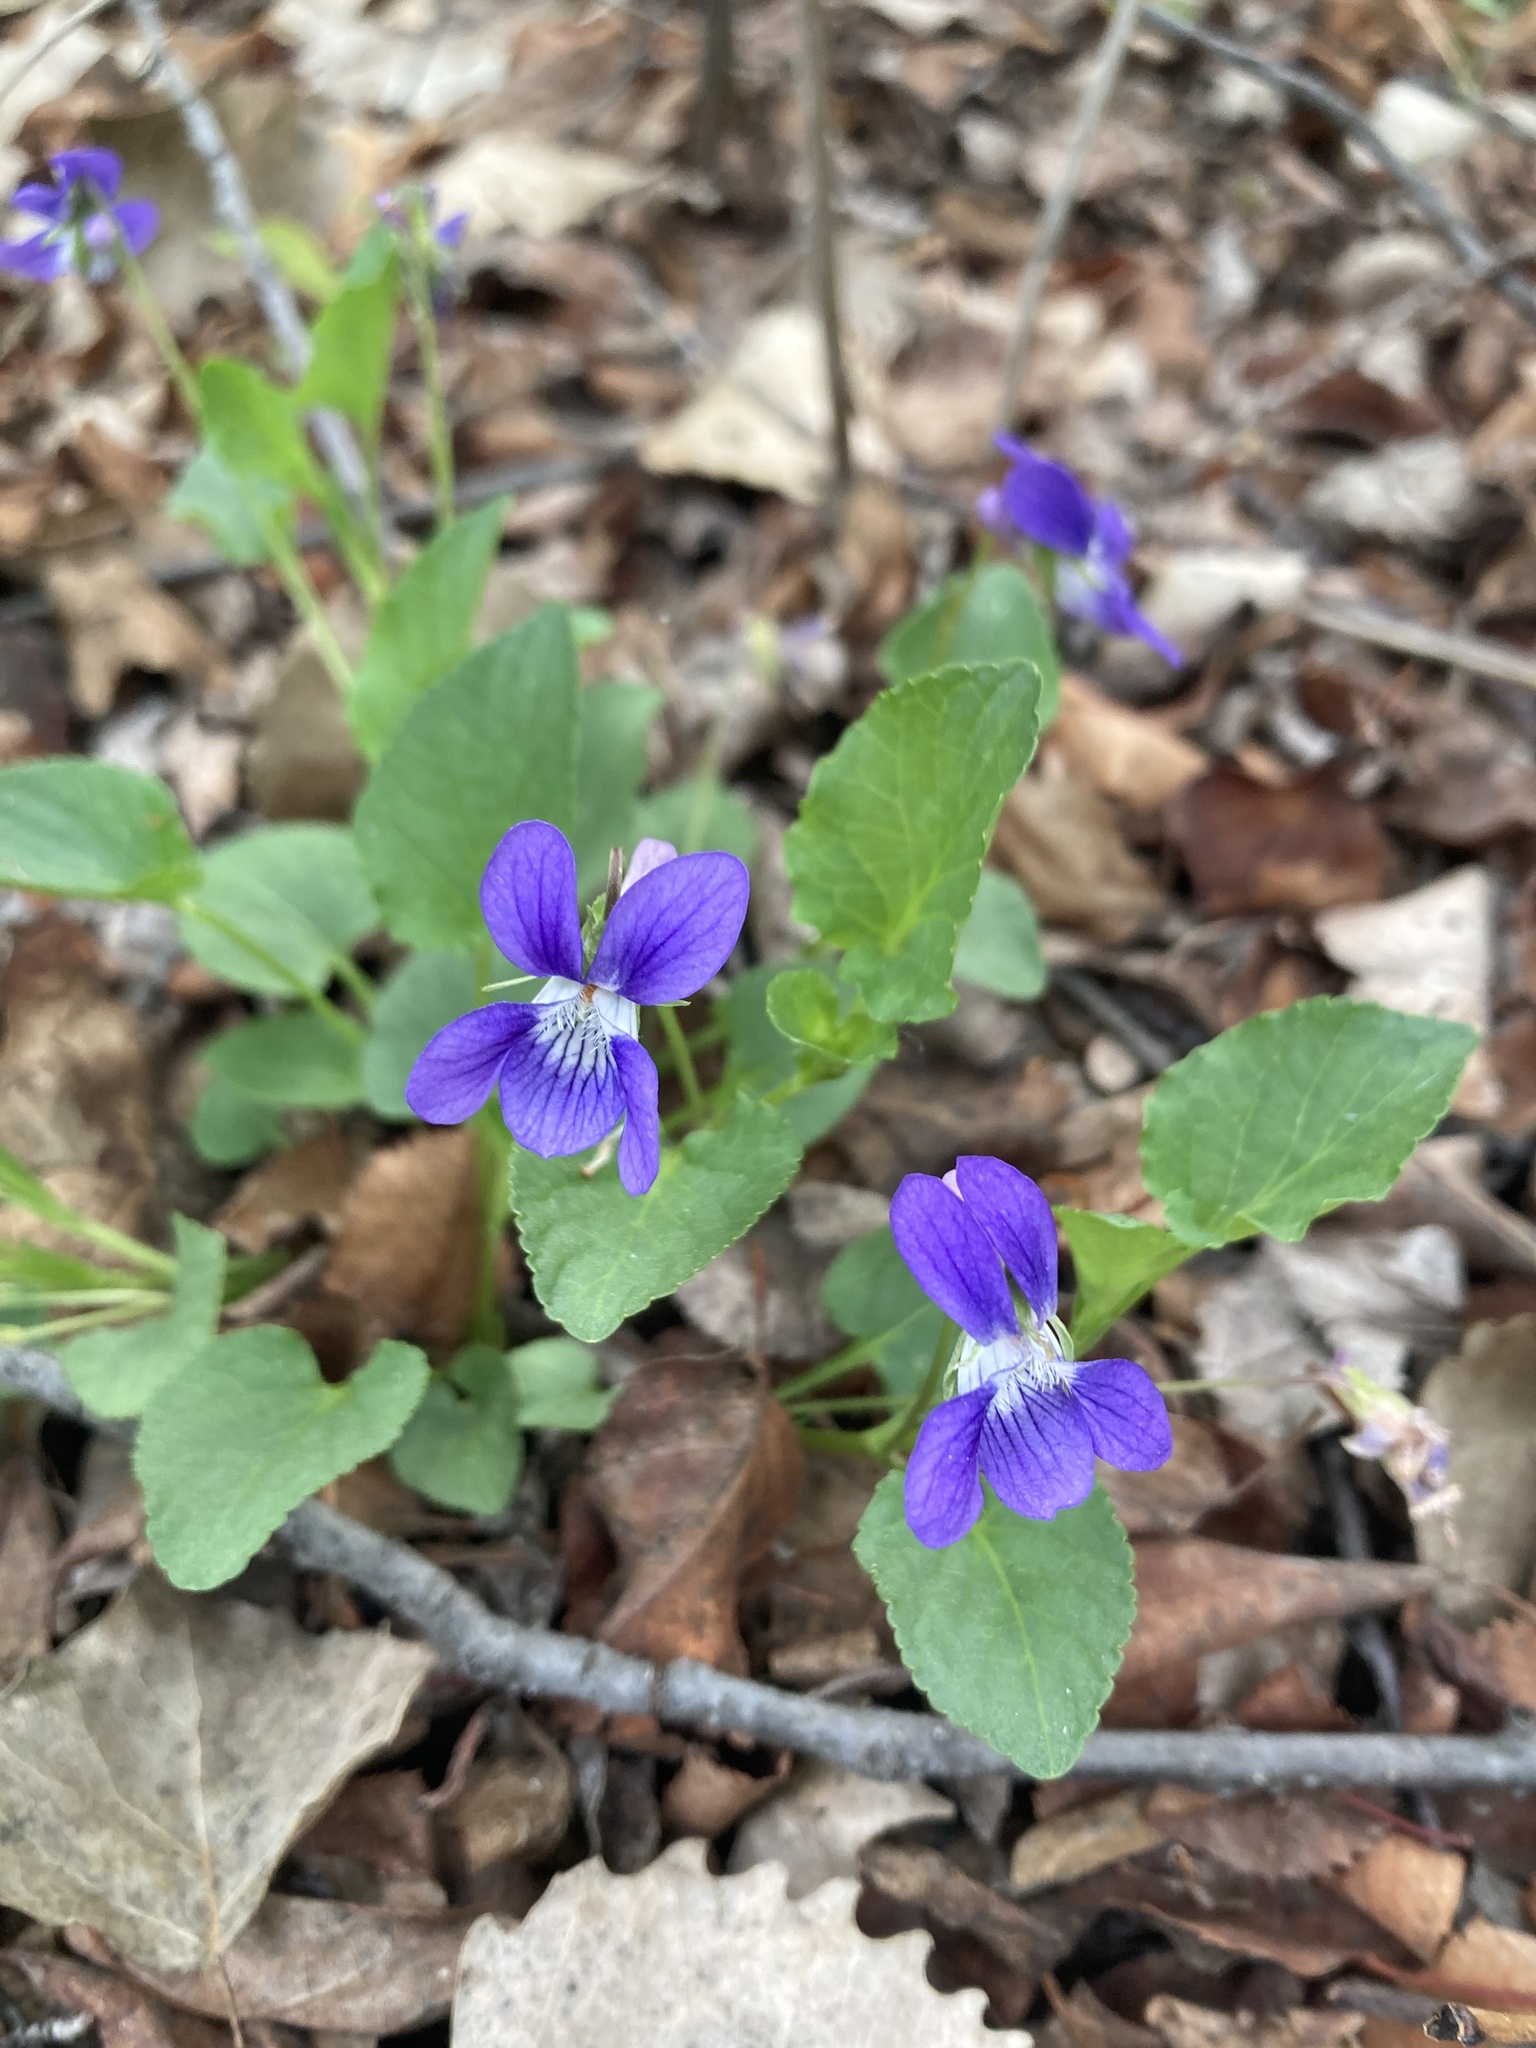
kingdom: Plantae
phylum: Tracheophyta
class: Magnoliopsida
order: Malpighiales
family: Violaceae
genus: Viola
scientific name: Viola adunca
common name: Sand violet
